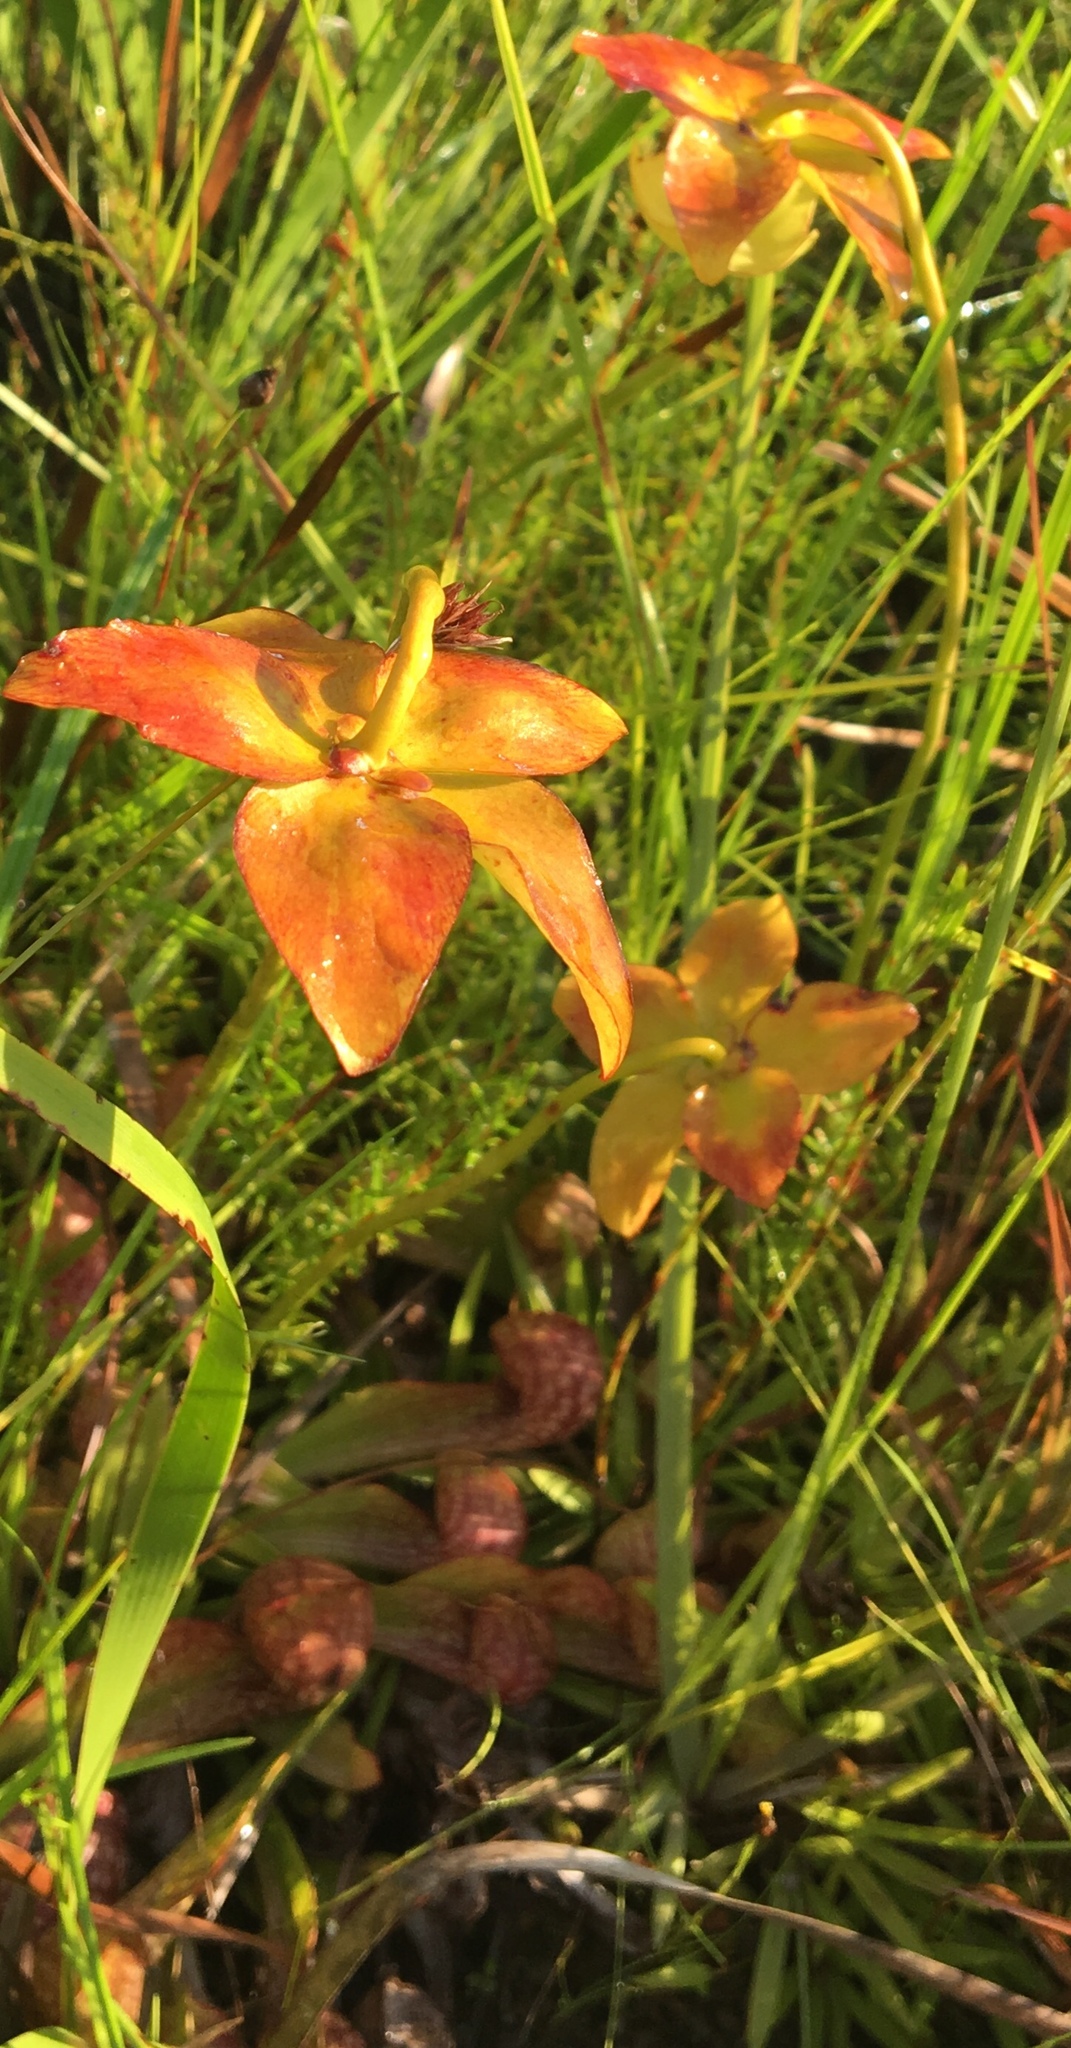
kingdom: Plantae
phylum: Tracheophyta
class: Magnoliopsida
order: Ericales
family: Sarraceniaceae
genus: Sarracenia
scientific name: Sarracenia psittacina
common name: Parrot pitcherplant
